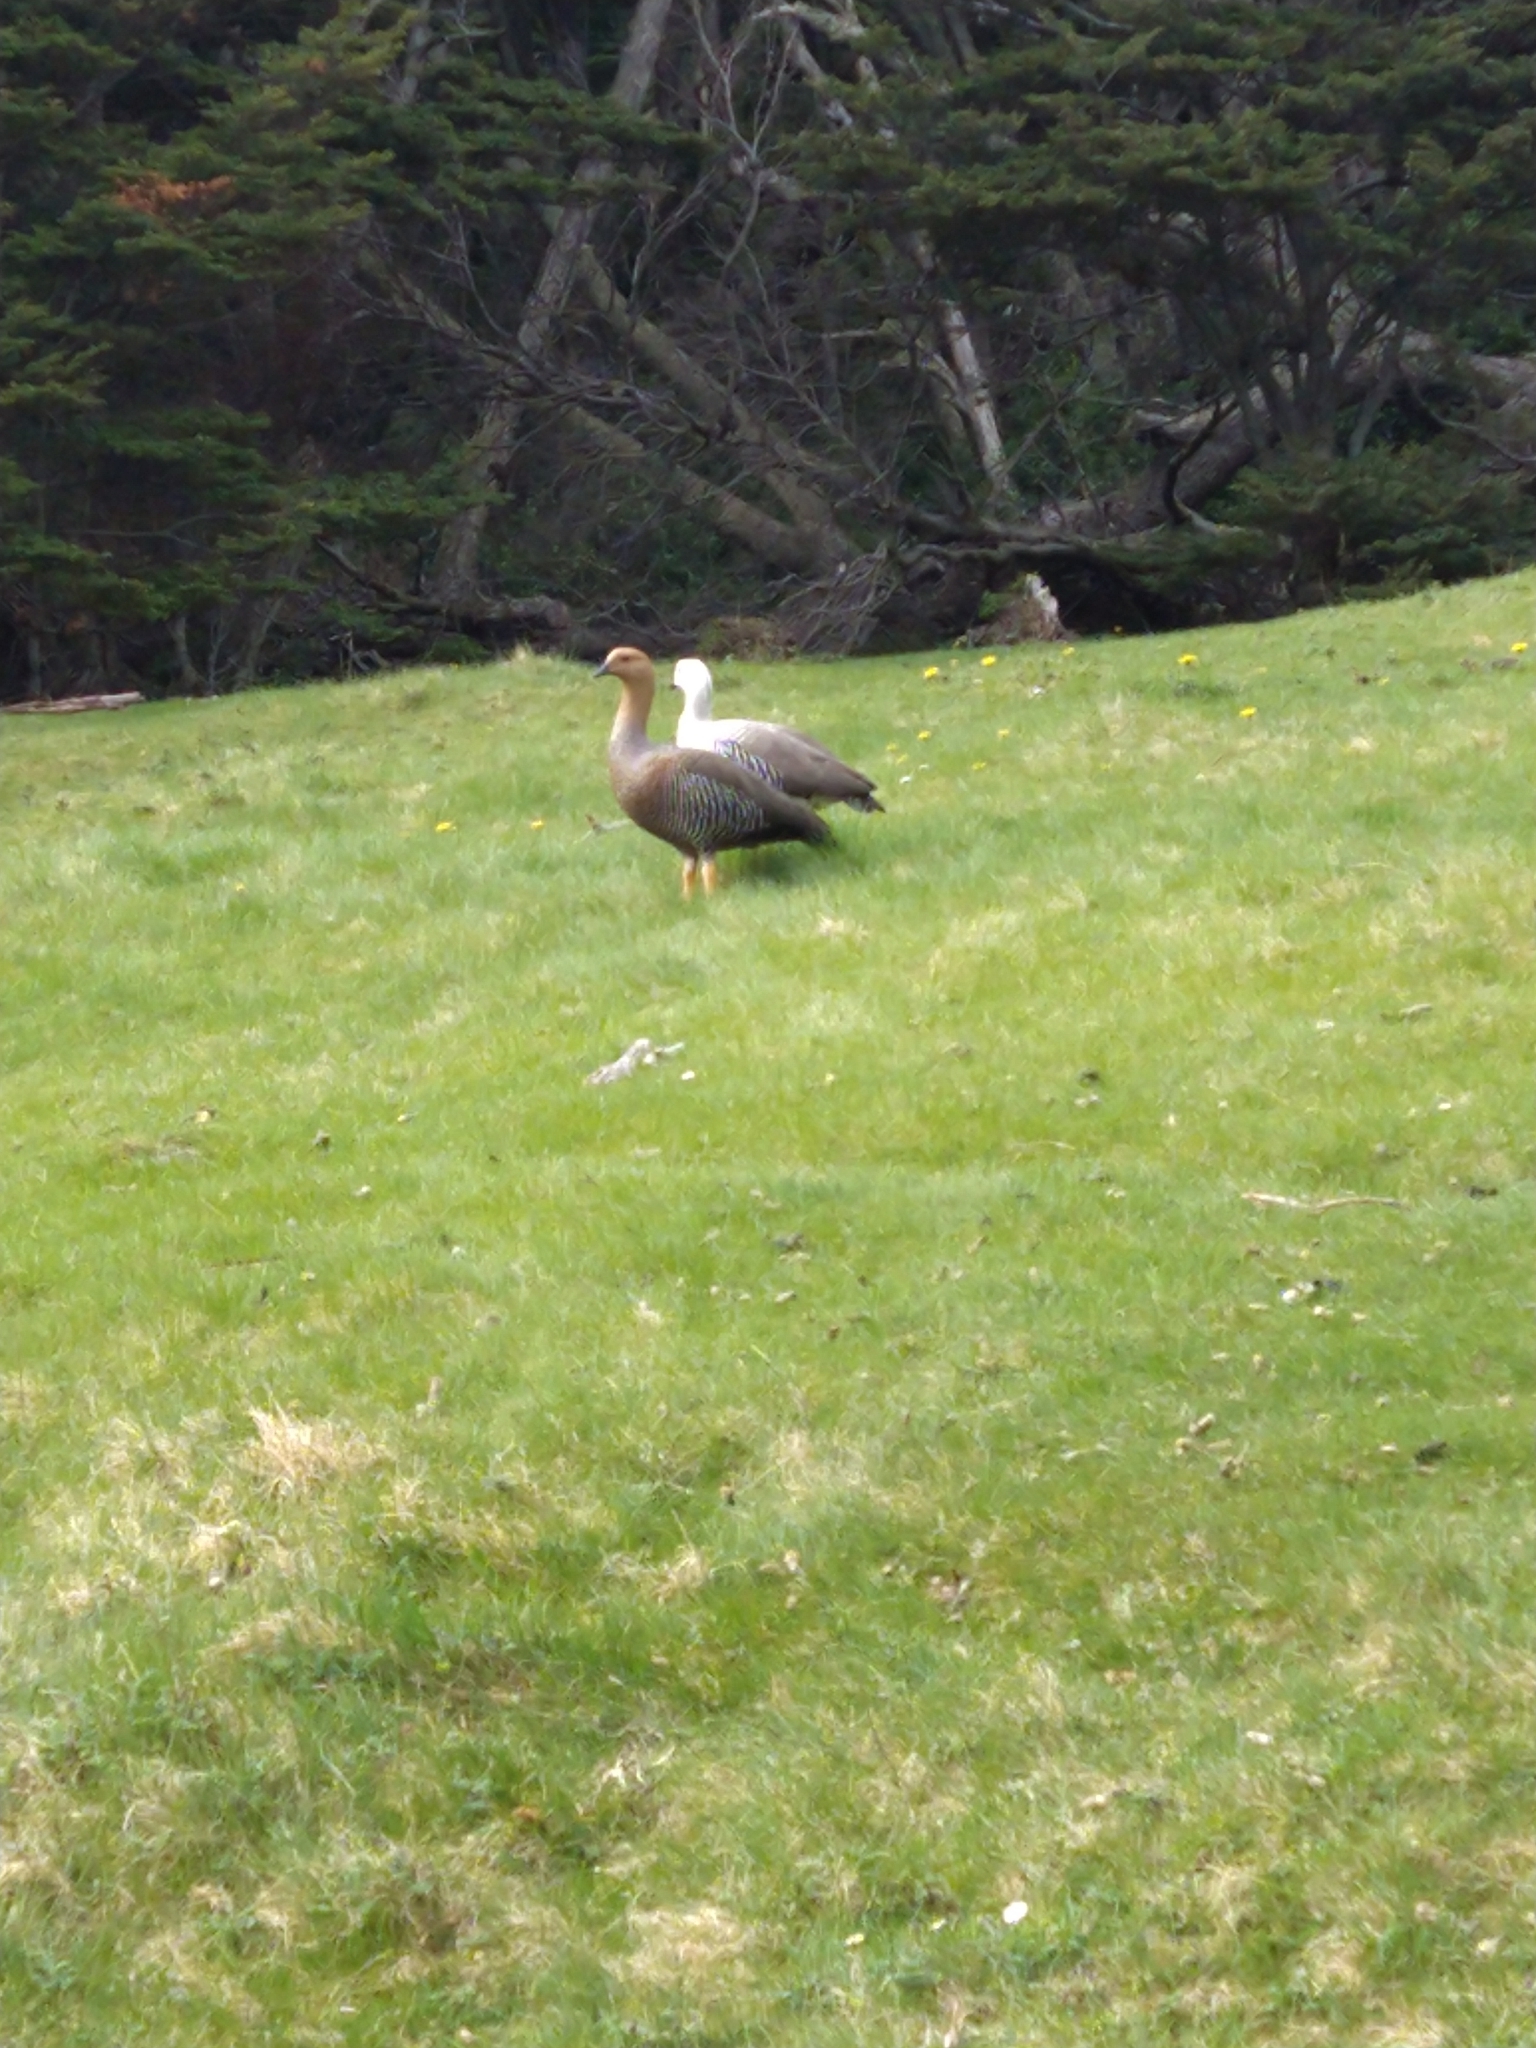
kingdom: Animalia
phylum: Chordata
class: Aves
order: Anseriformes
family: Anatidae
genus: Chloephaga
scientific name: Chloephaga picta
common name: Upland goose
